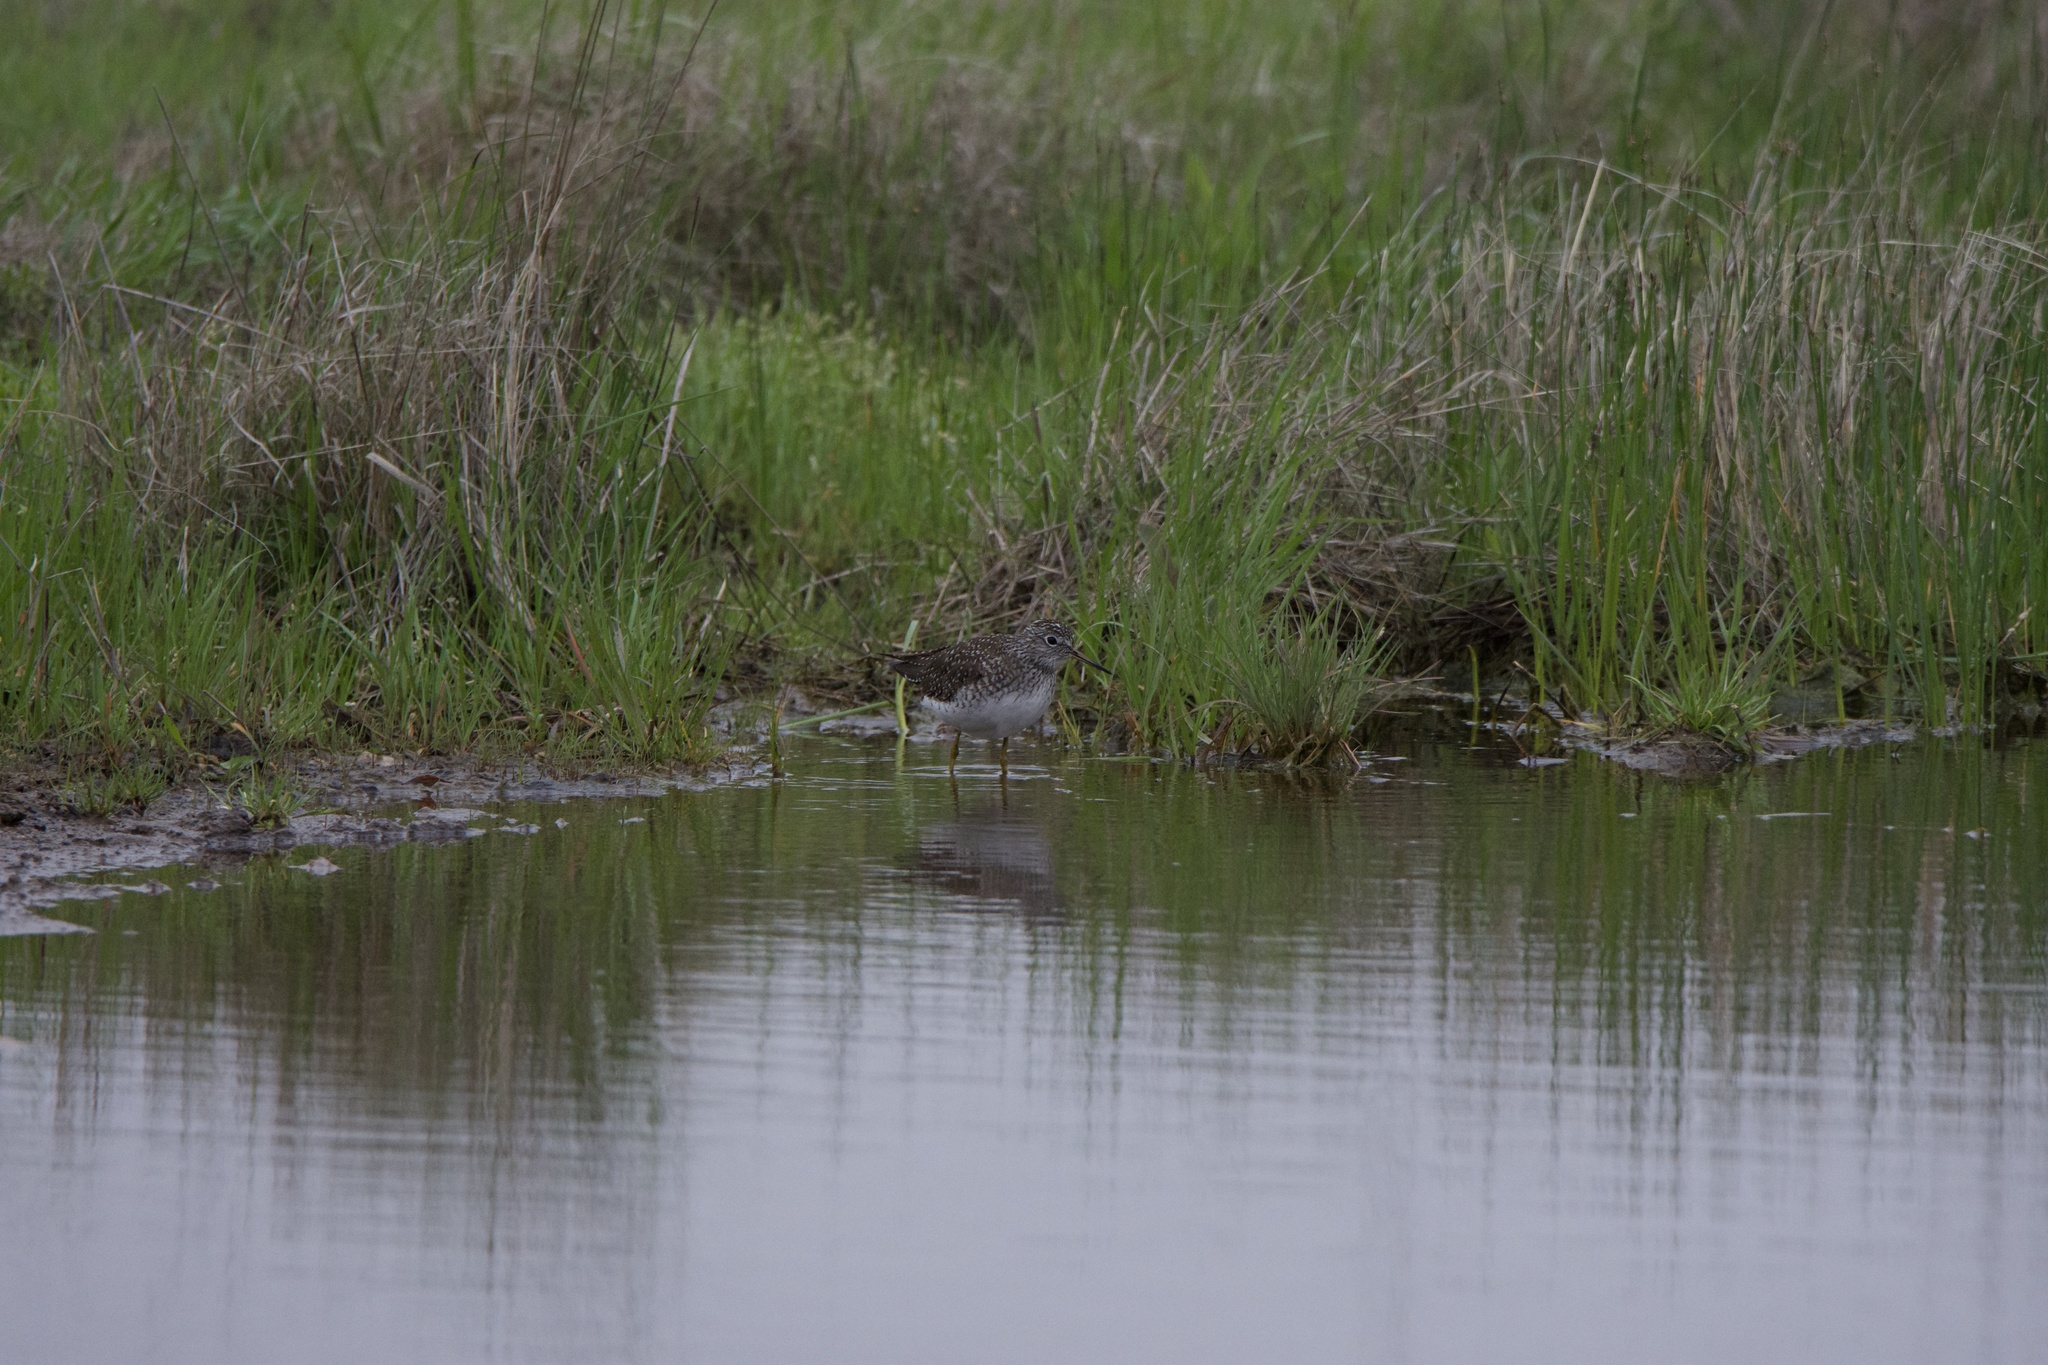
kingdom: Animalia
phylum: Chordata
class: Aves
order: Charadriiformes
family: Scolopacidae
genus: Tringa
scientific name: Tringa solitaria
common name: Solitary sandpiper
